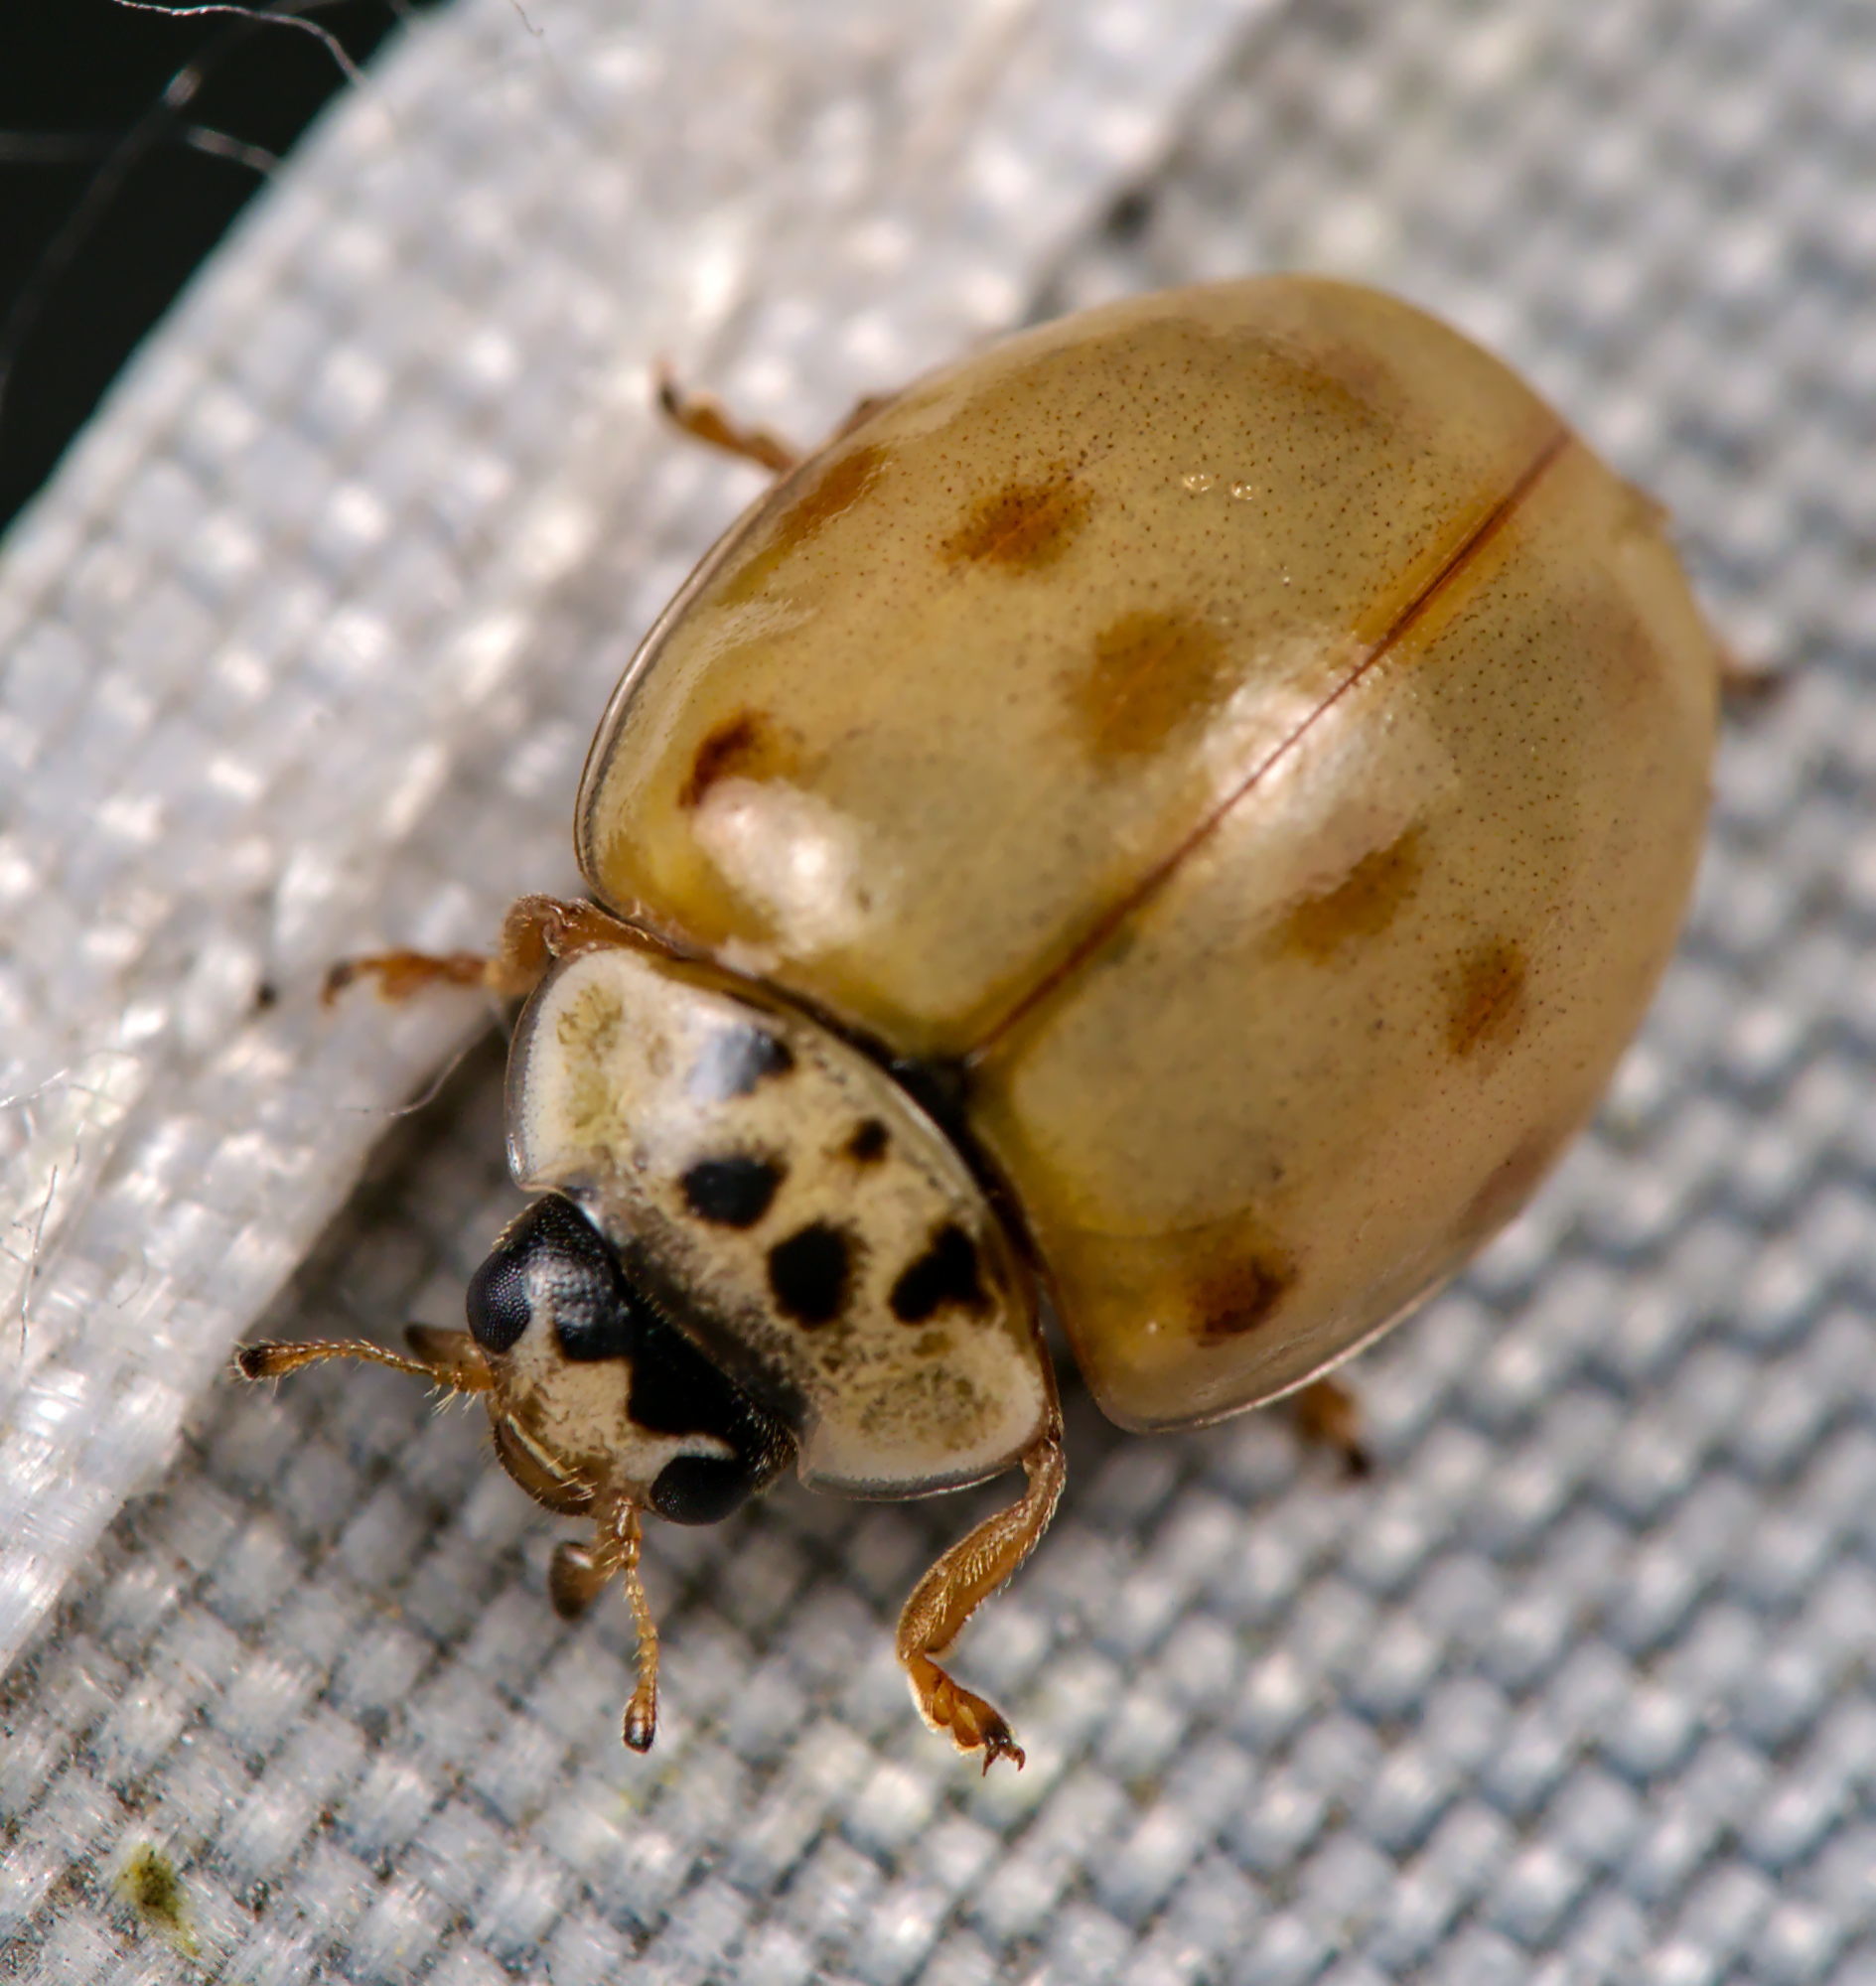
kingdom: Animalia
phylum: Arthropoda
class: Insecta
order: Coleoptera
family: Coccinellidae
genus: Adalia
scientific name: Adalia decempunctata
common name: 10-spot ladybird
